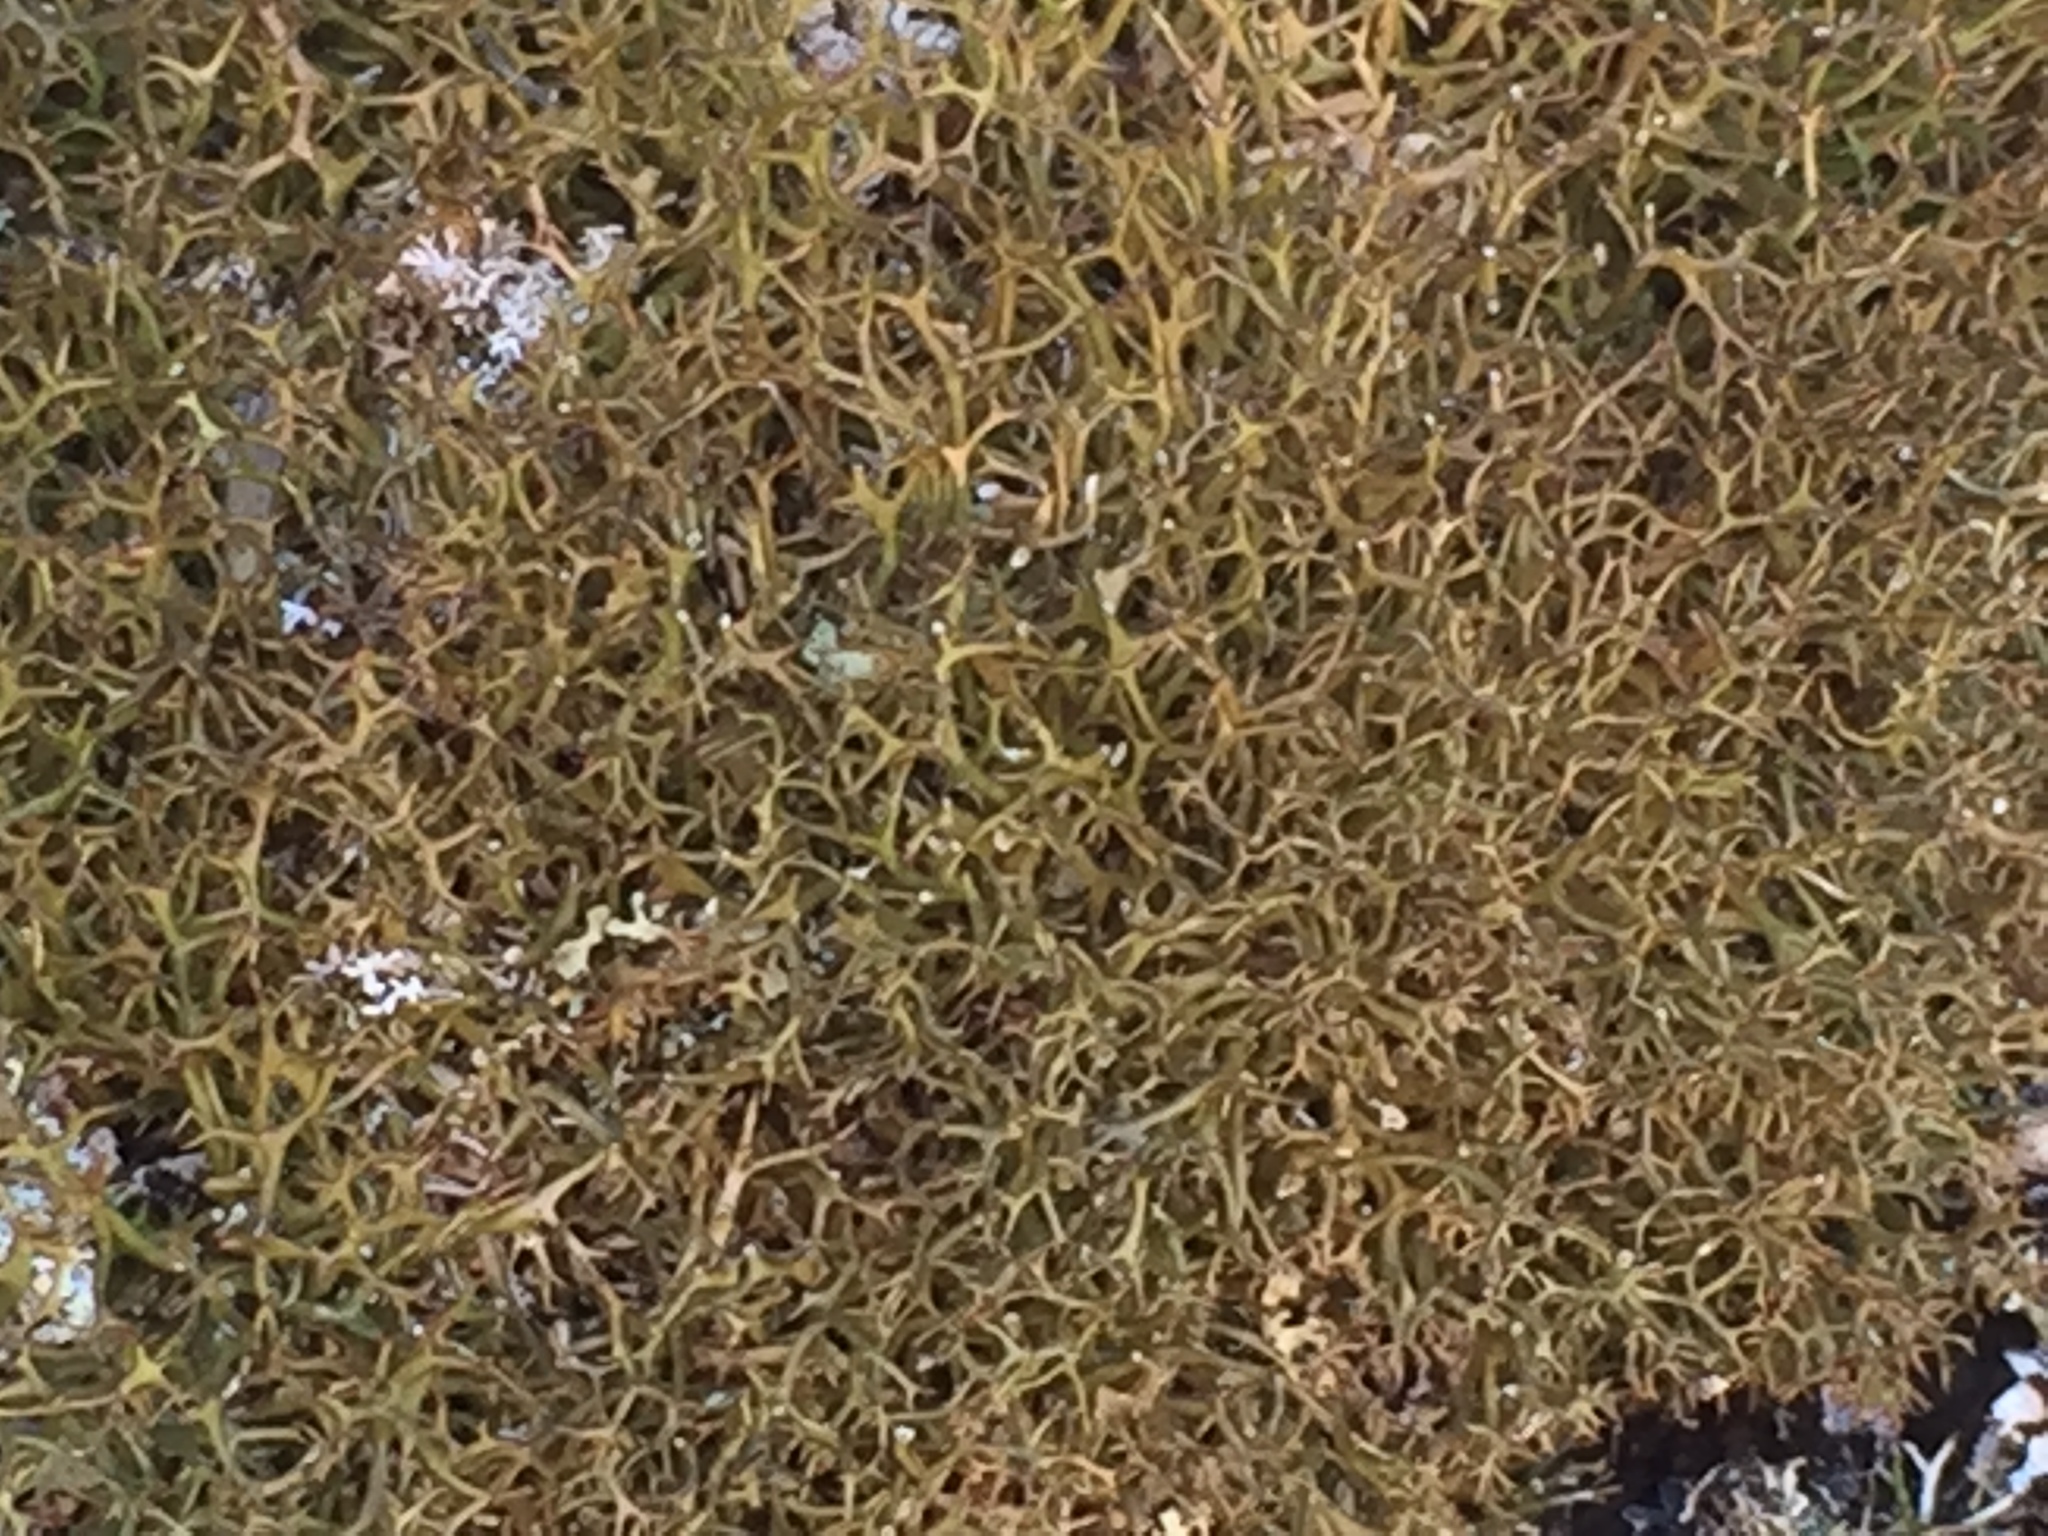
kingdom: Fungi
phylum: Ascomycota
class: Lecanoromycetes
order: Lecanorales
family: Cladoniaceae
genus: Cladia
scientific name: Cladia gorgonea
